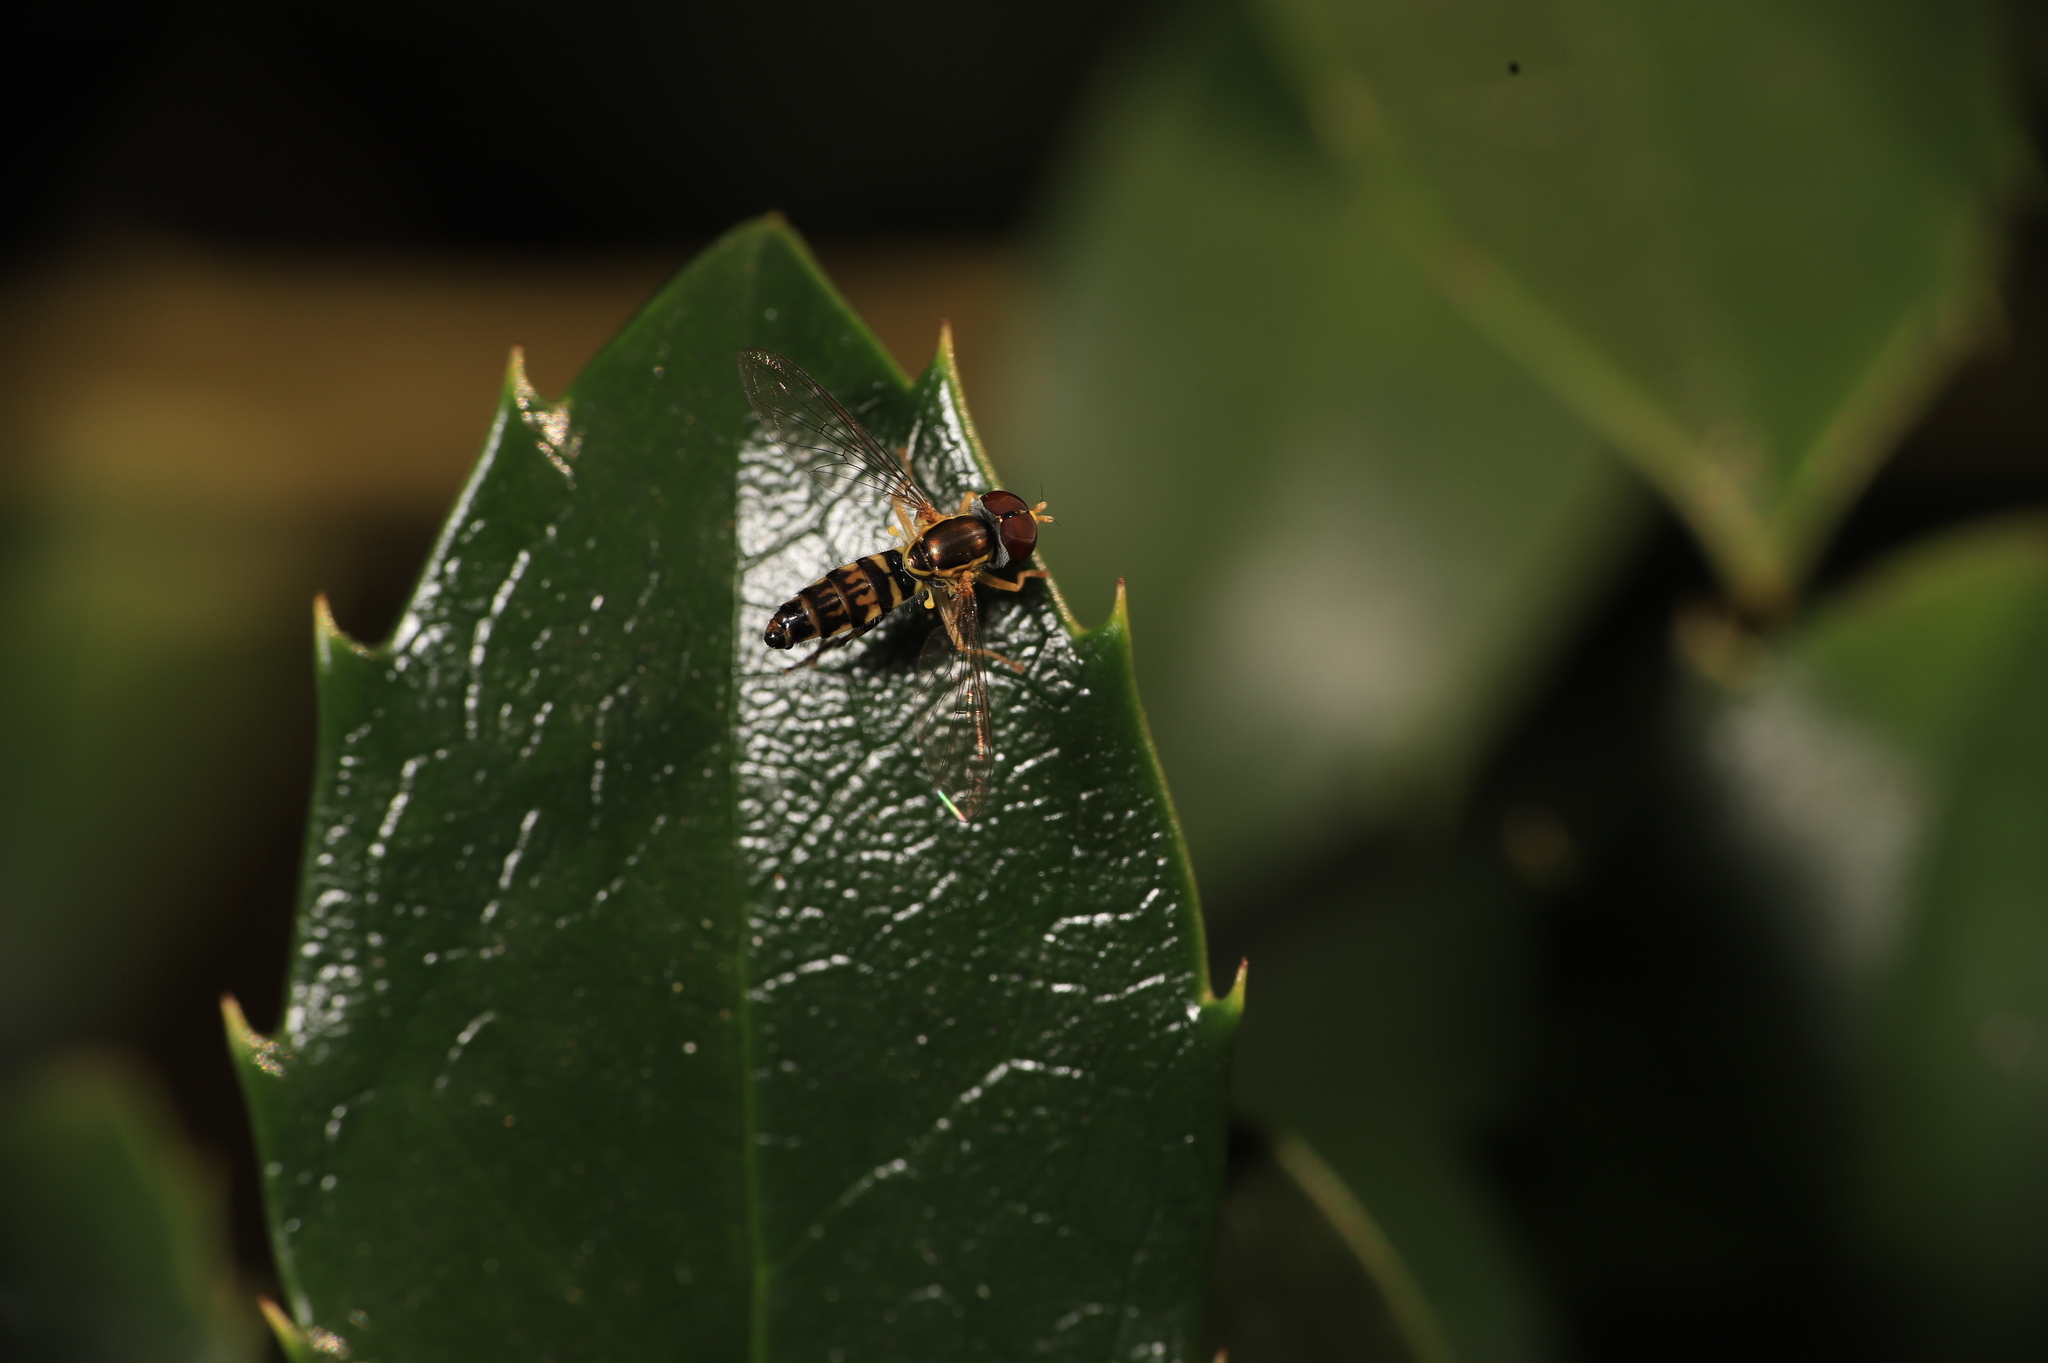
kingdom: Animalia
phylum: Arthropoda
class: Insecta
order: Diptera
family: Syrphidae
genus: Toxomerus
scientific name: Toxomerus geminatus
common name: Eastern calligrapher
